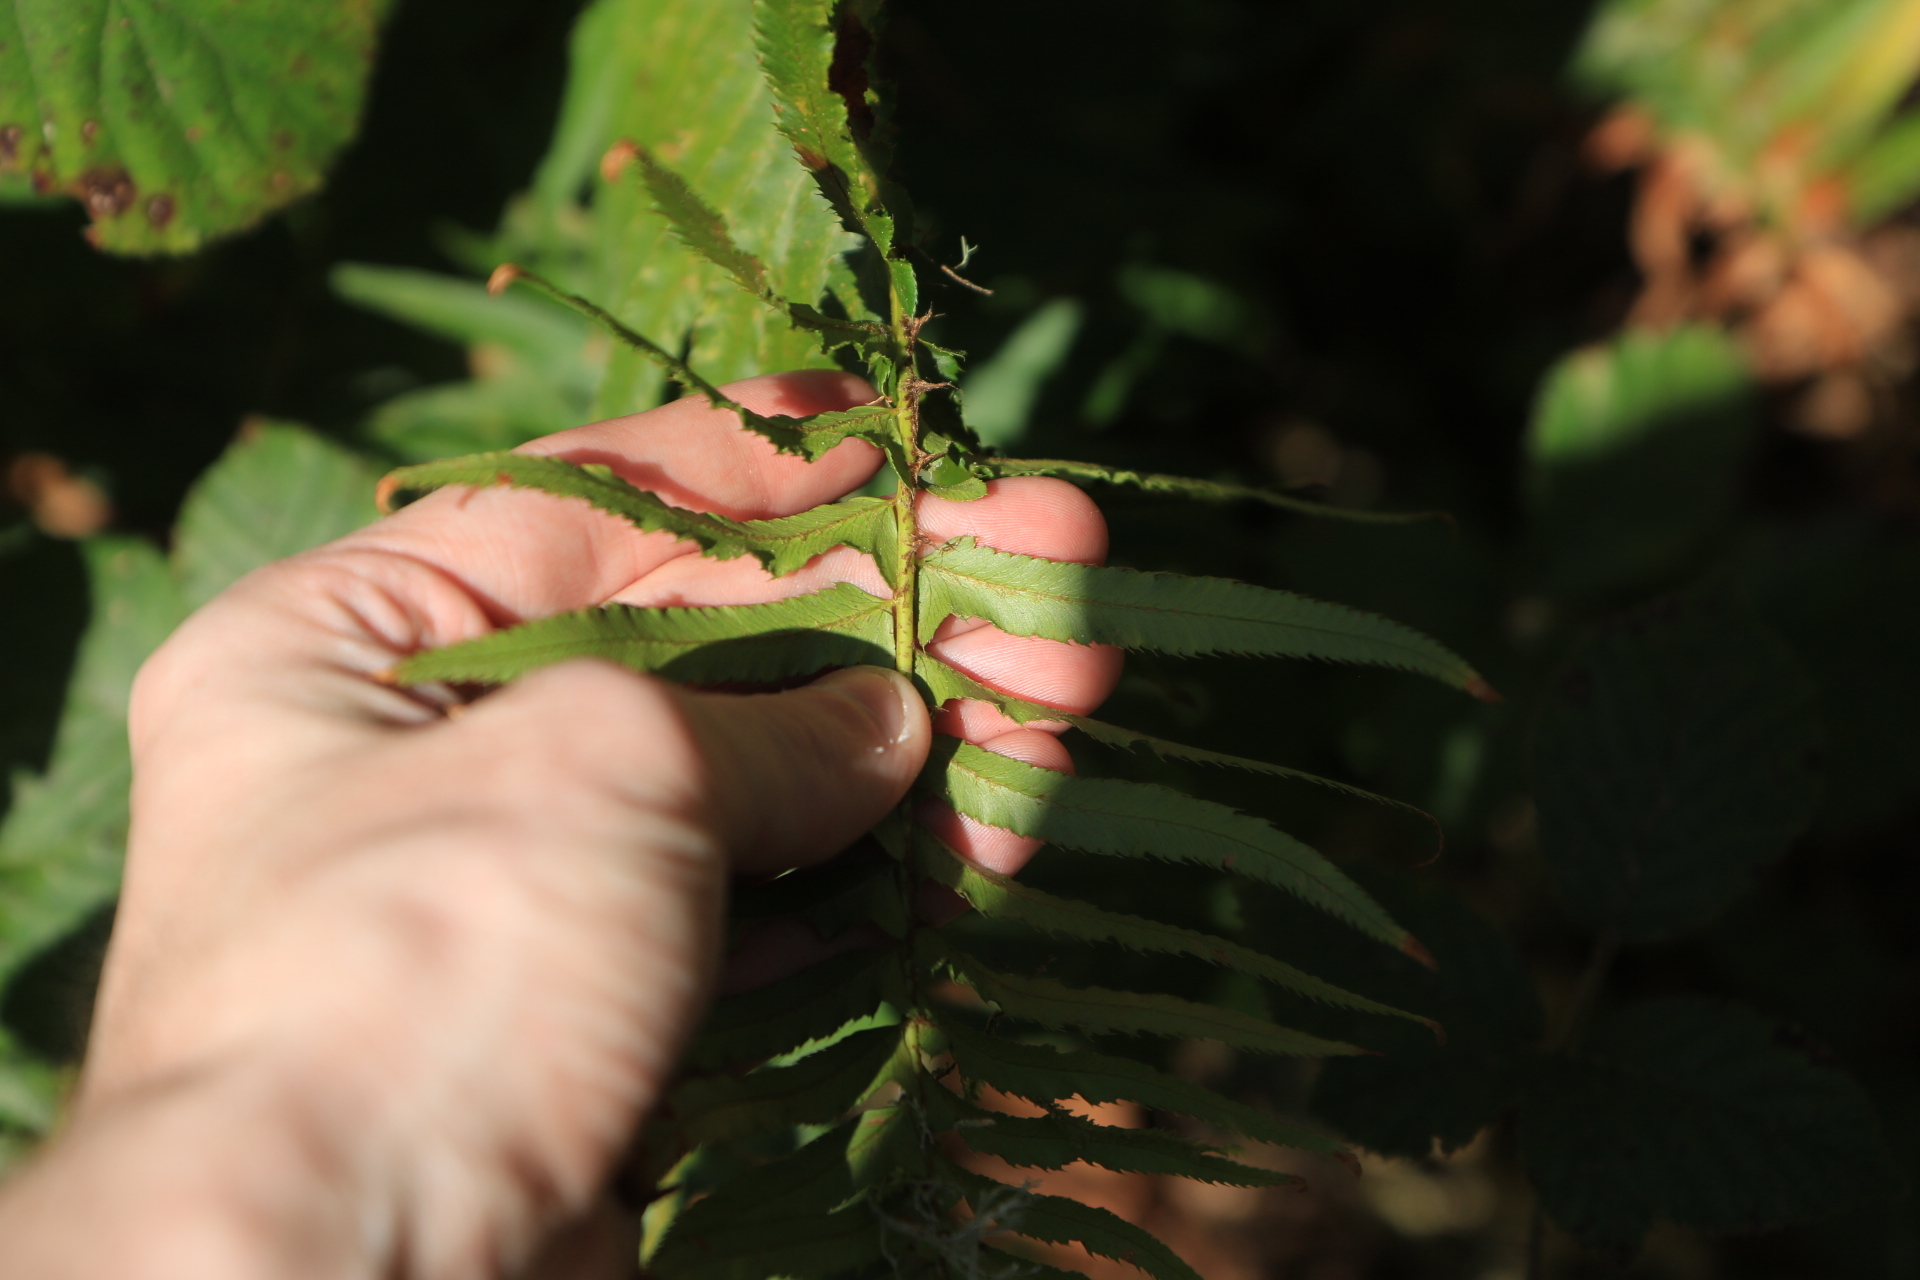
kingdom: Plantae
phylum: Tracheophyta
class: Polypodiopsida
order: Polypodiales
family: Dryopteridaceae
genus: Polystichum
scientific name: Polystichum munitum
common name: Western sword-fern
